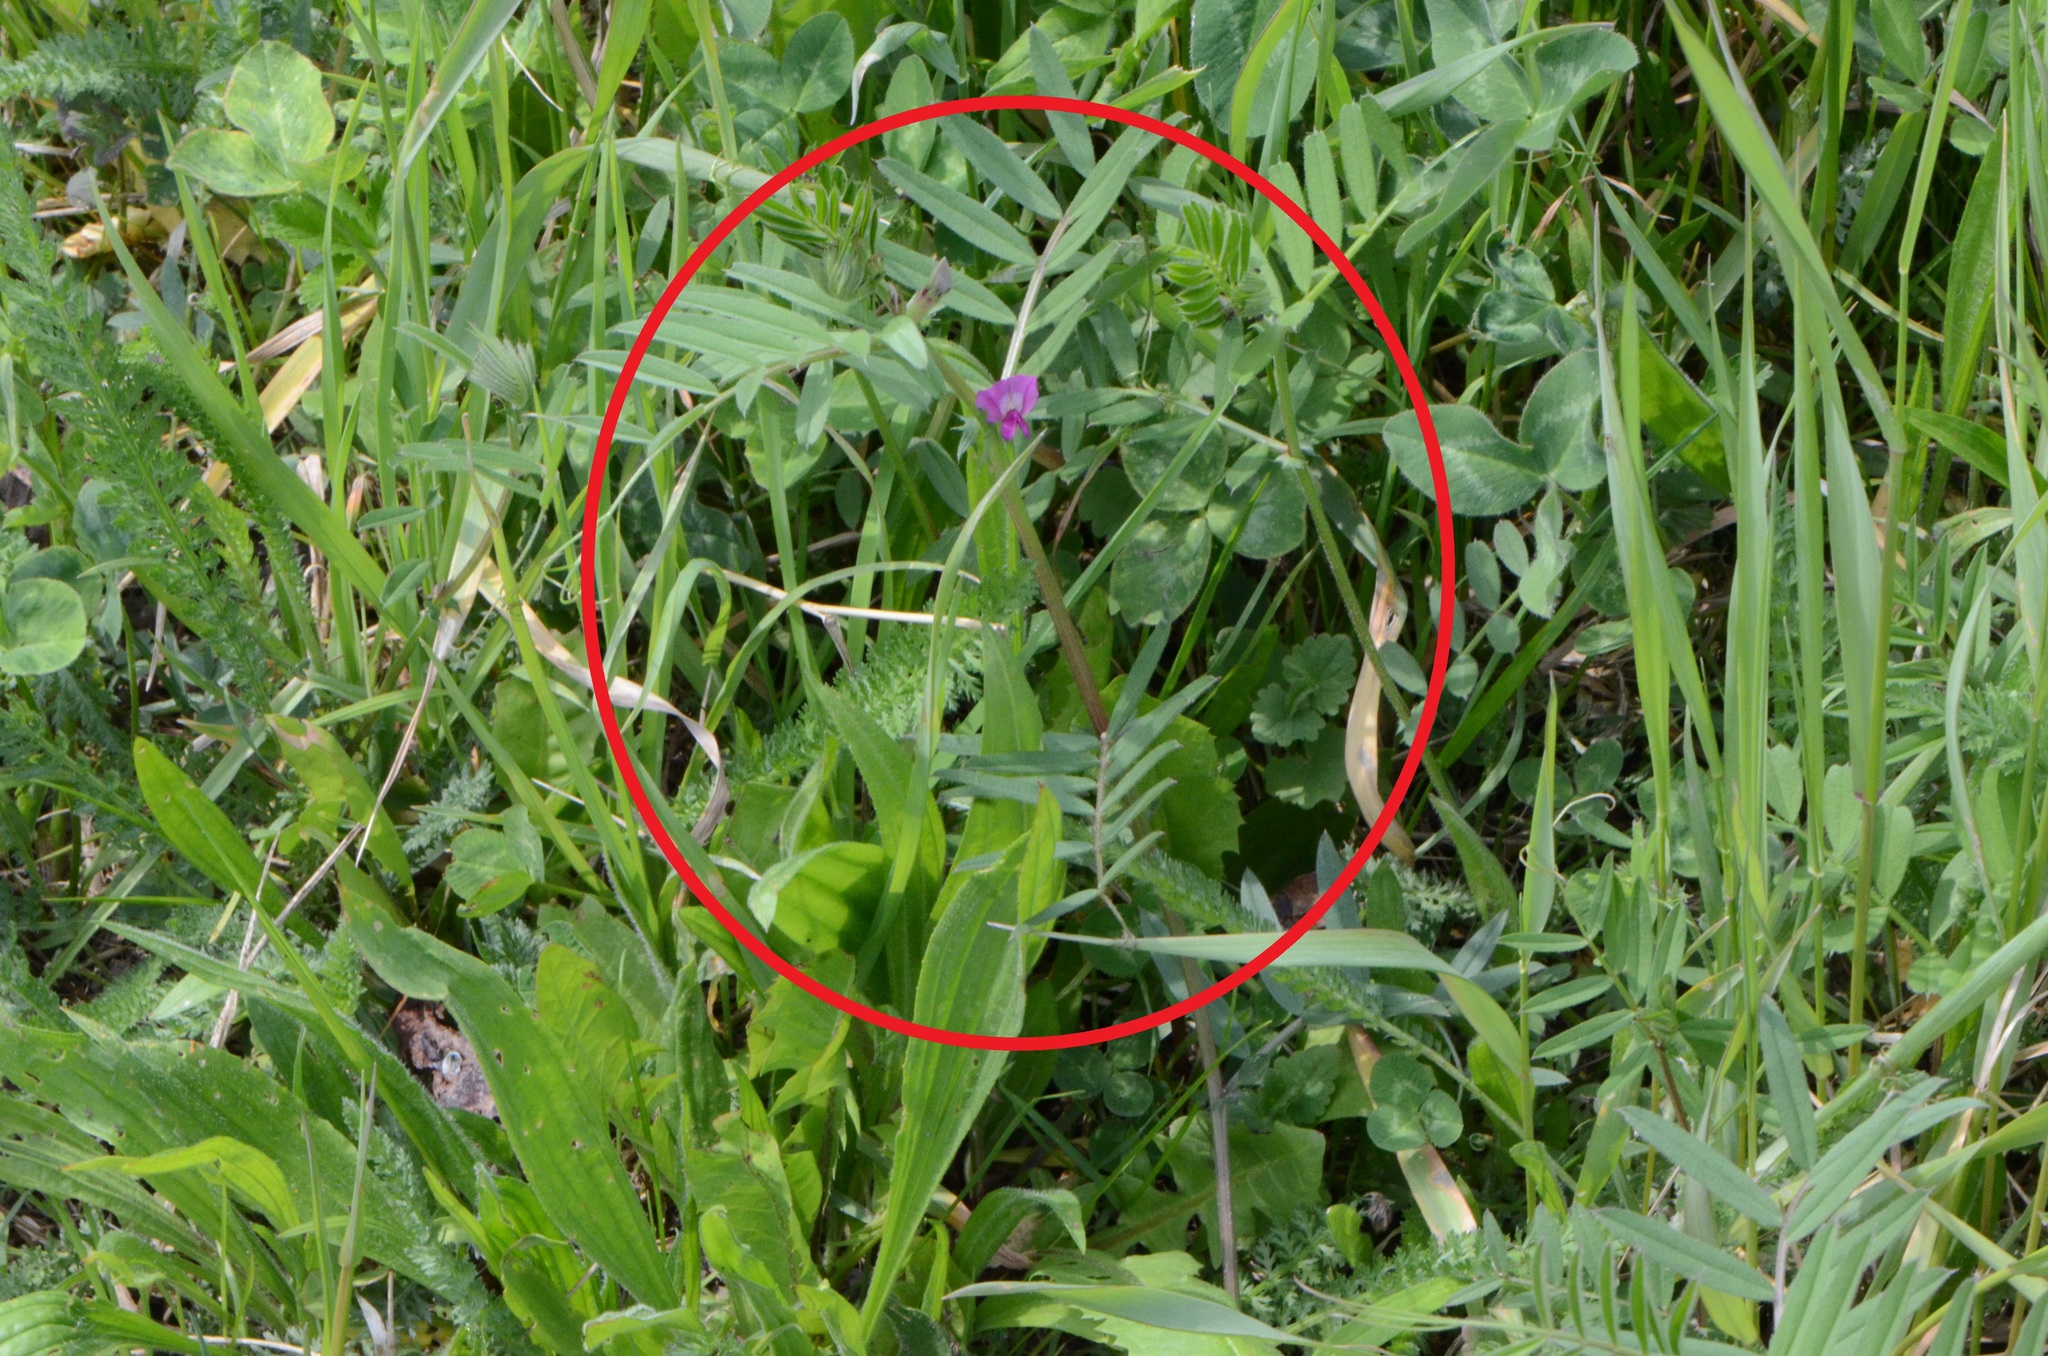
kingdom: Plantae
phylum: Tracheophyta
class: Magnoliopsida
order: Fabales
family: Fabaceae
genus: Vicia
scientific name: Vicia sativa
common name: Garden vetch
